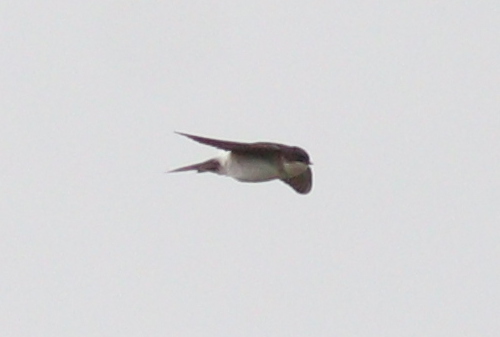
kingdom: Animalia
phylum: Chordata
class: Aves
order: Passeriformes
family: Hirundinidae
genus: Delichon
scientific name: Delichon urbicum
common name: Common house martin
